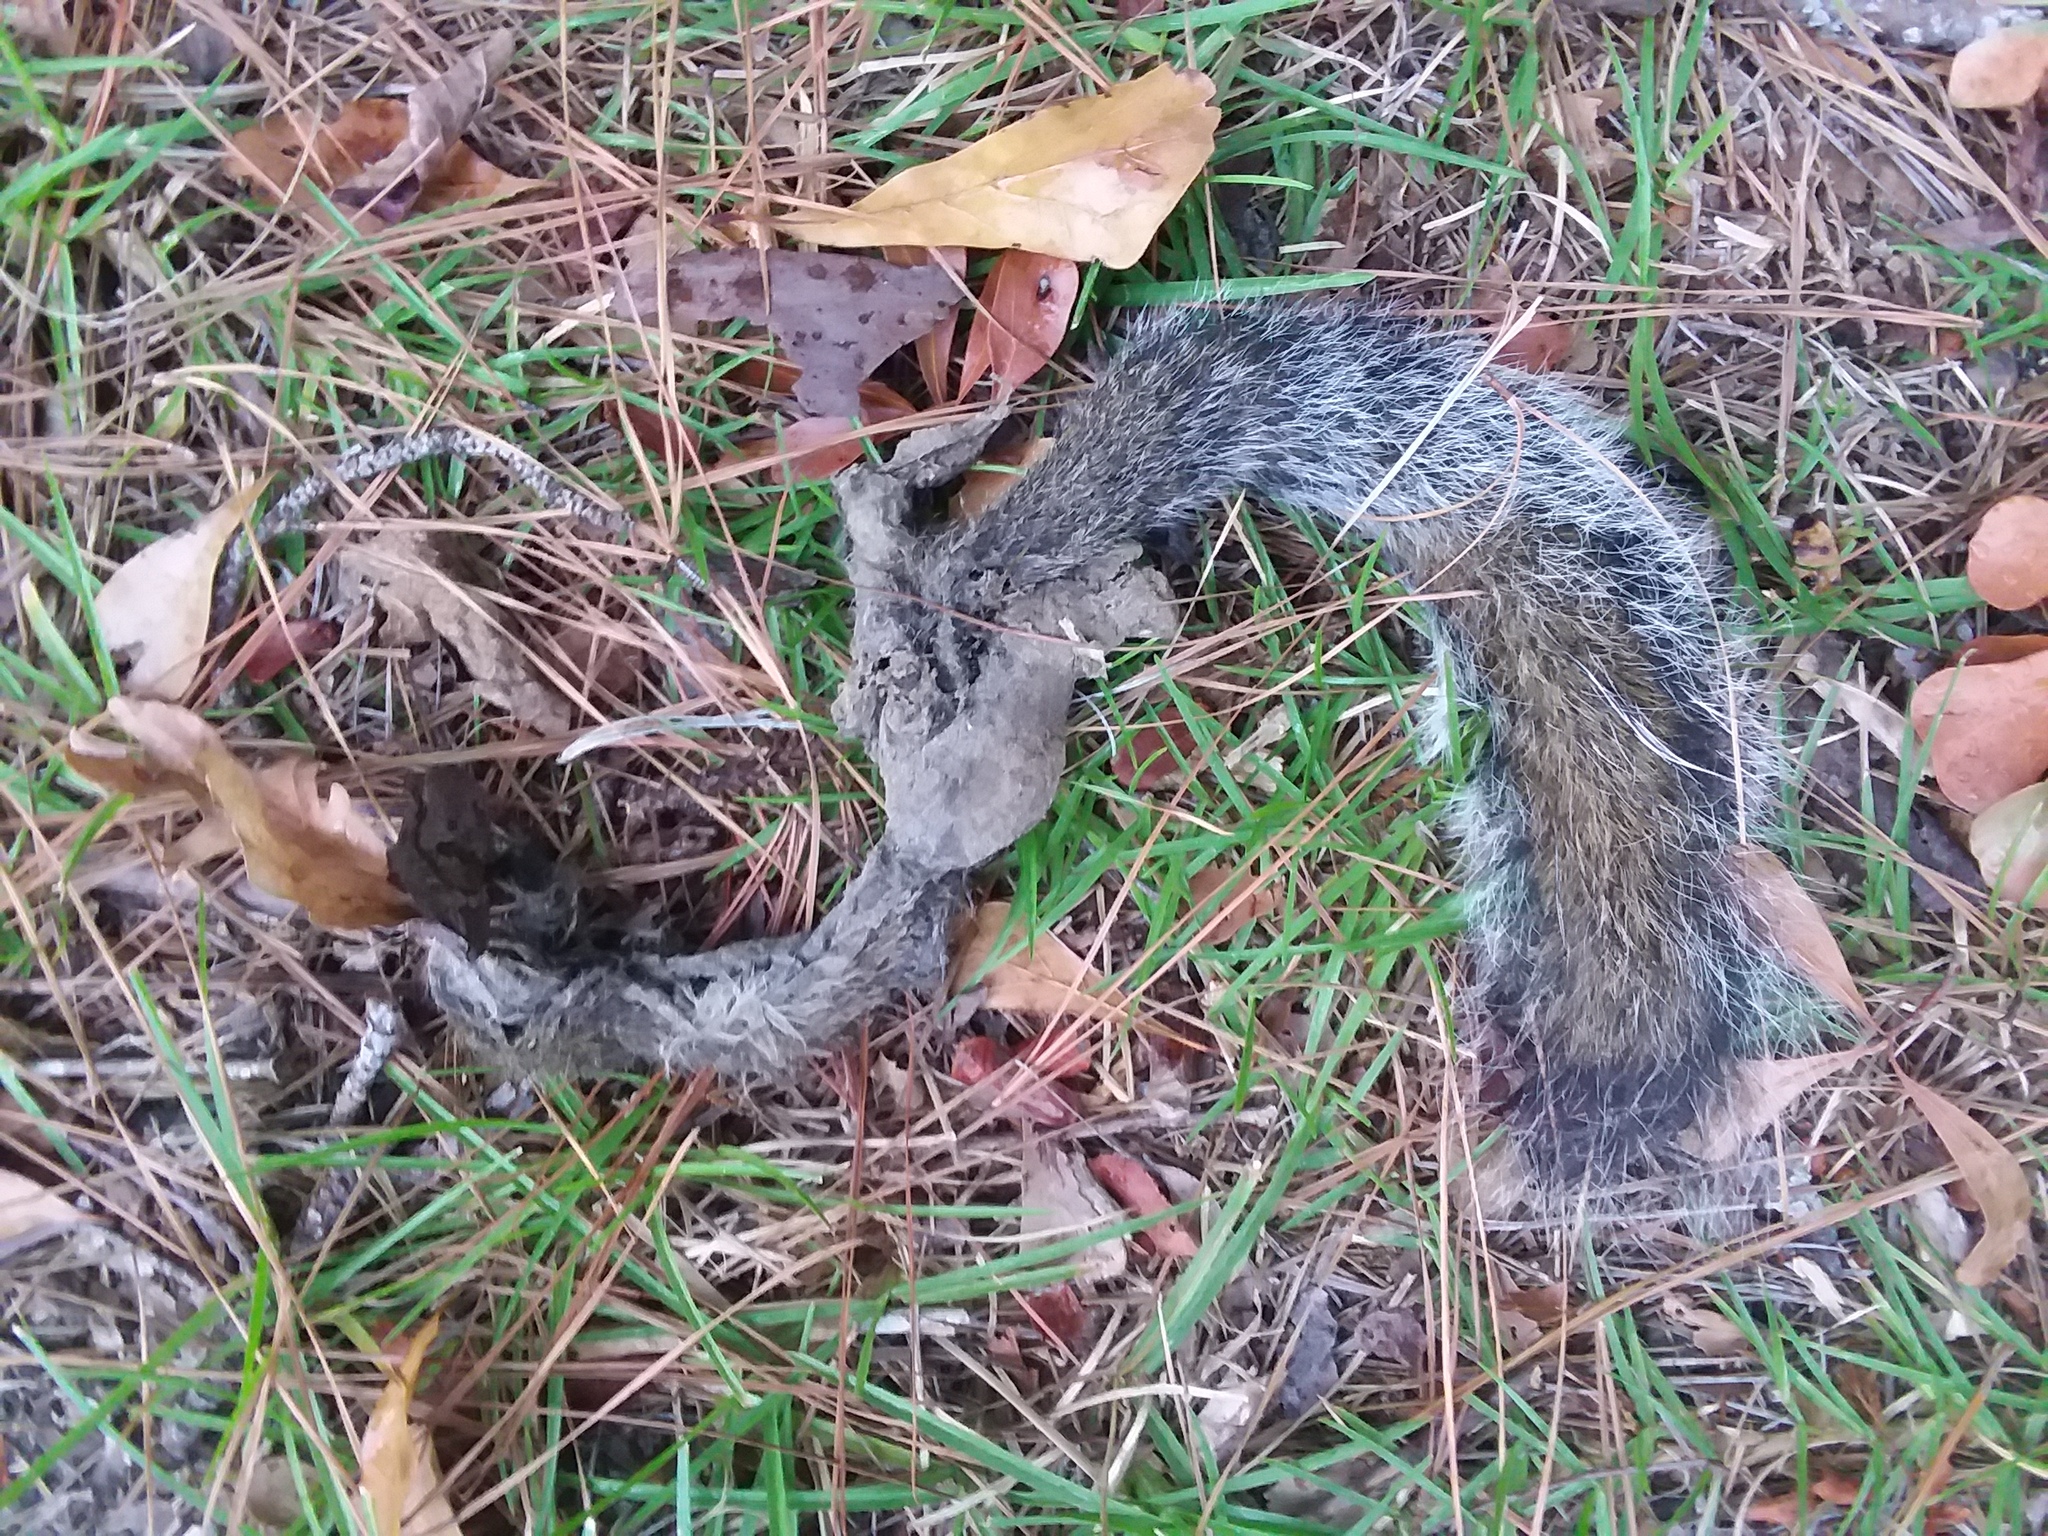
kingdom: Animalia
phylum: Chordata
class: Mammalia
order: Rodentia
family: Sciuridae
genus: Sciurus
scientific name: Sciurus carolinensis
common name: Eastern gray squirrel
